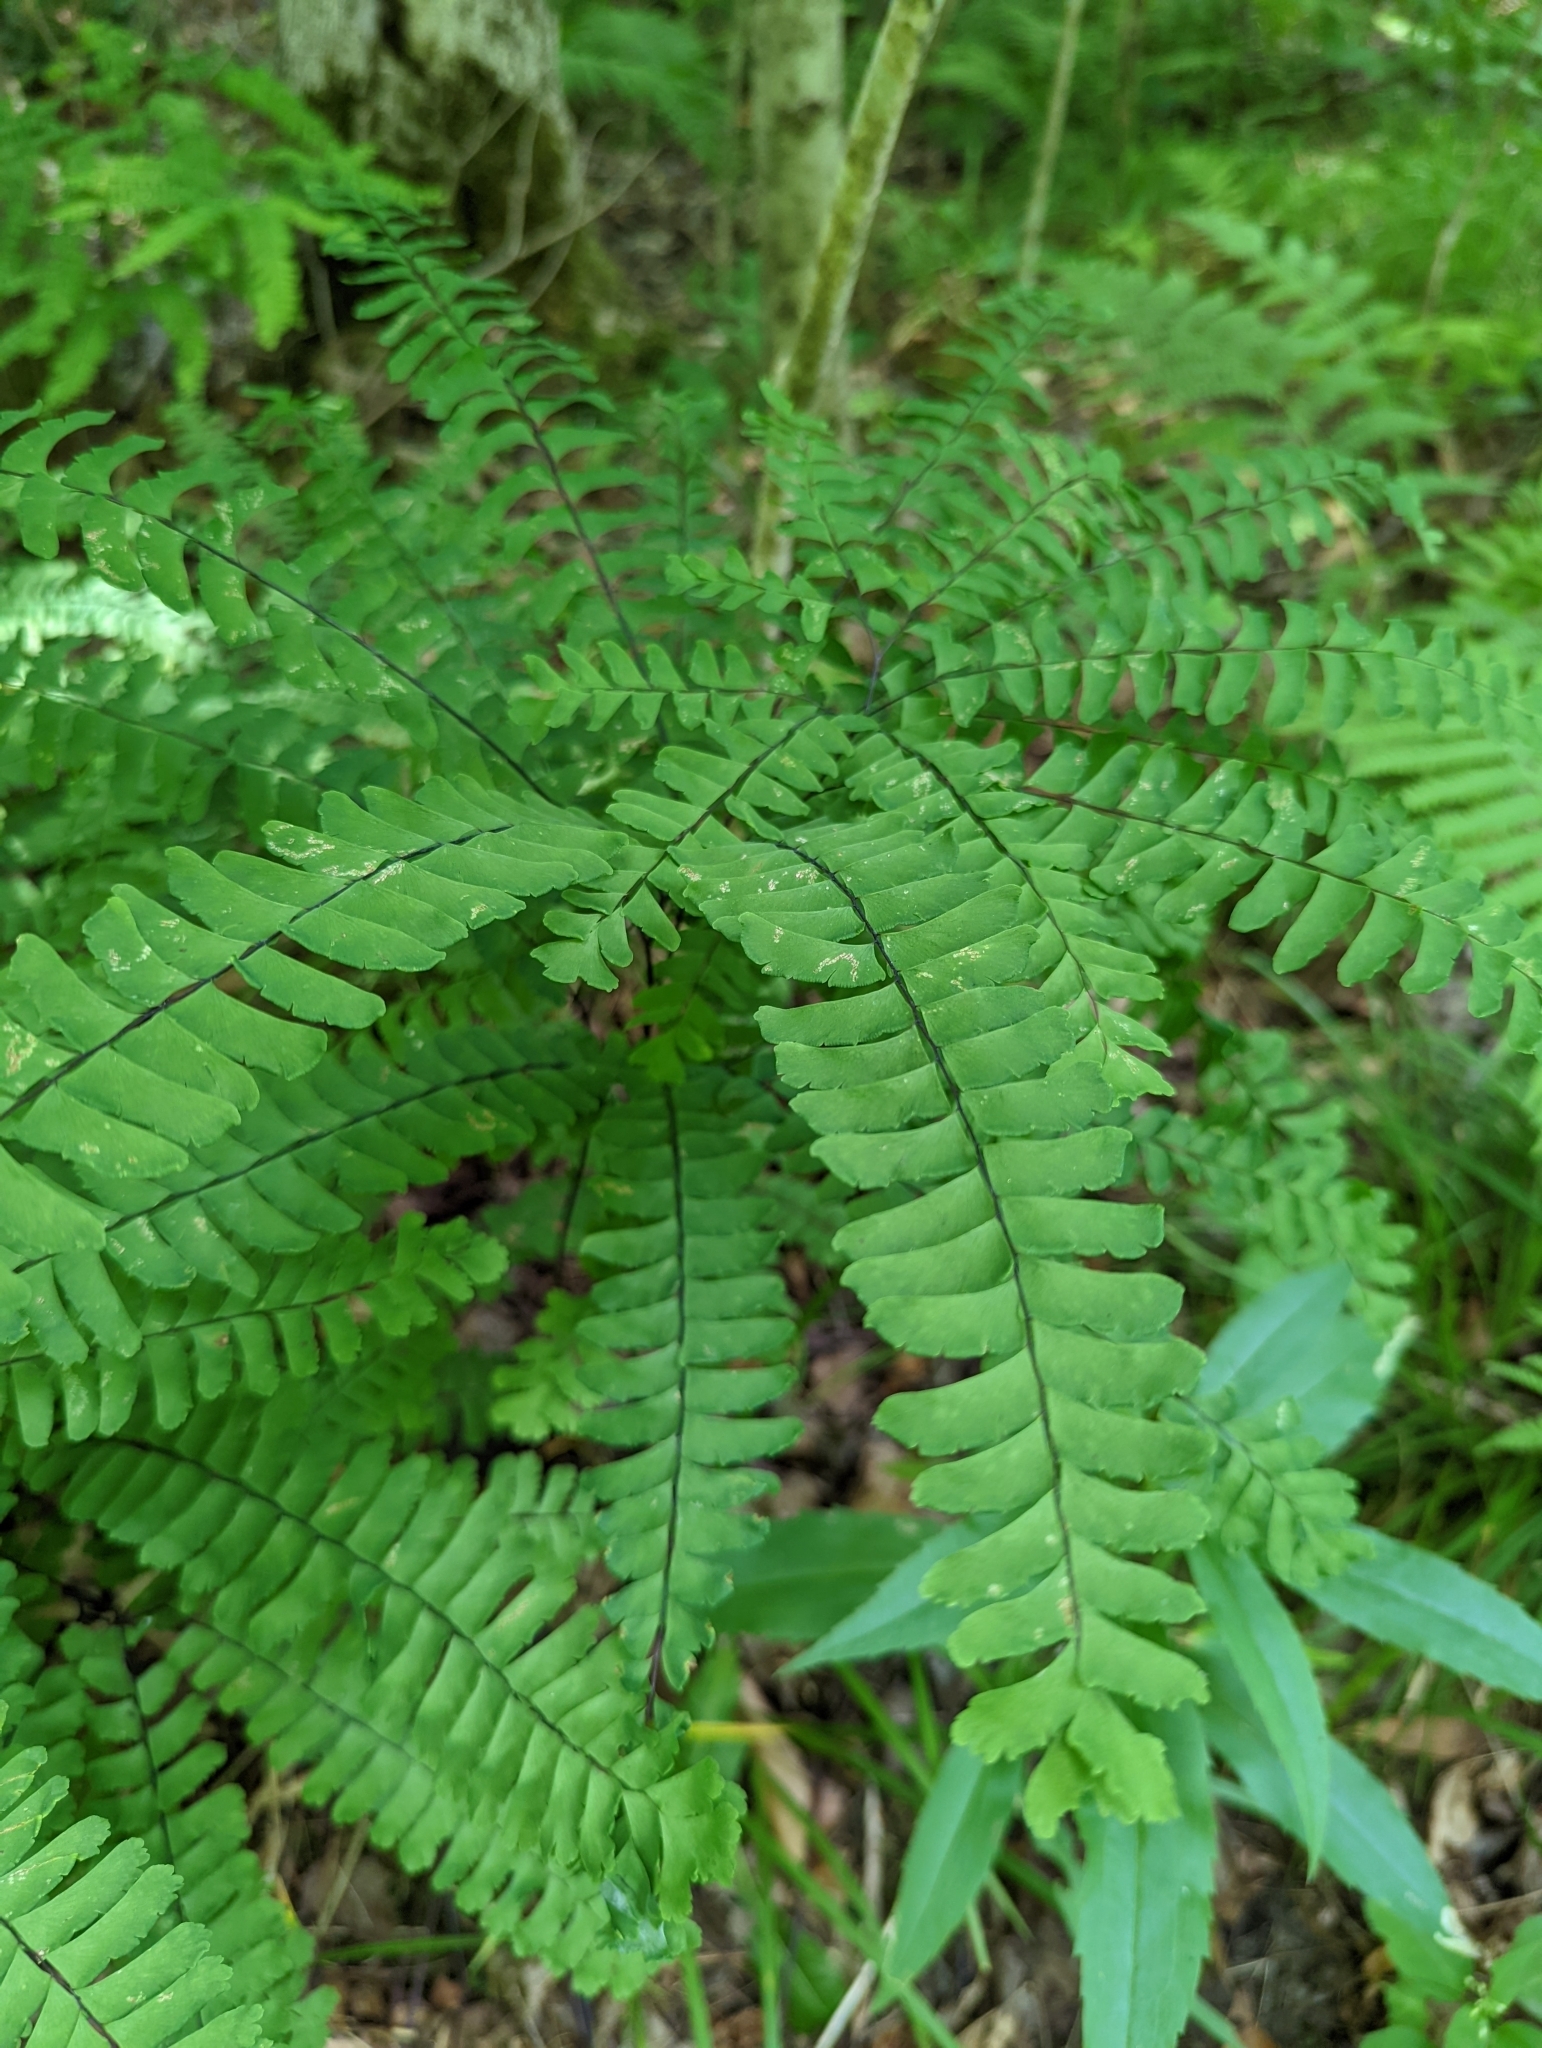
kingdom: Plantae
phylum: Tracheophyta
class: Polypodiopsida
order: Polypodiales
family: Pteridaceae
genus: Adiantum
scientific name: Adiantum pedatum
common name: Five-finger fern
